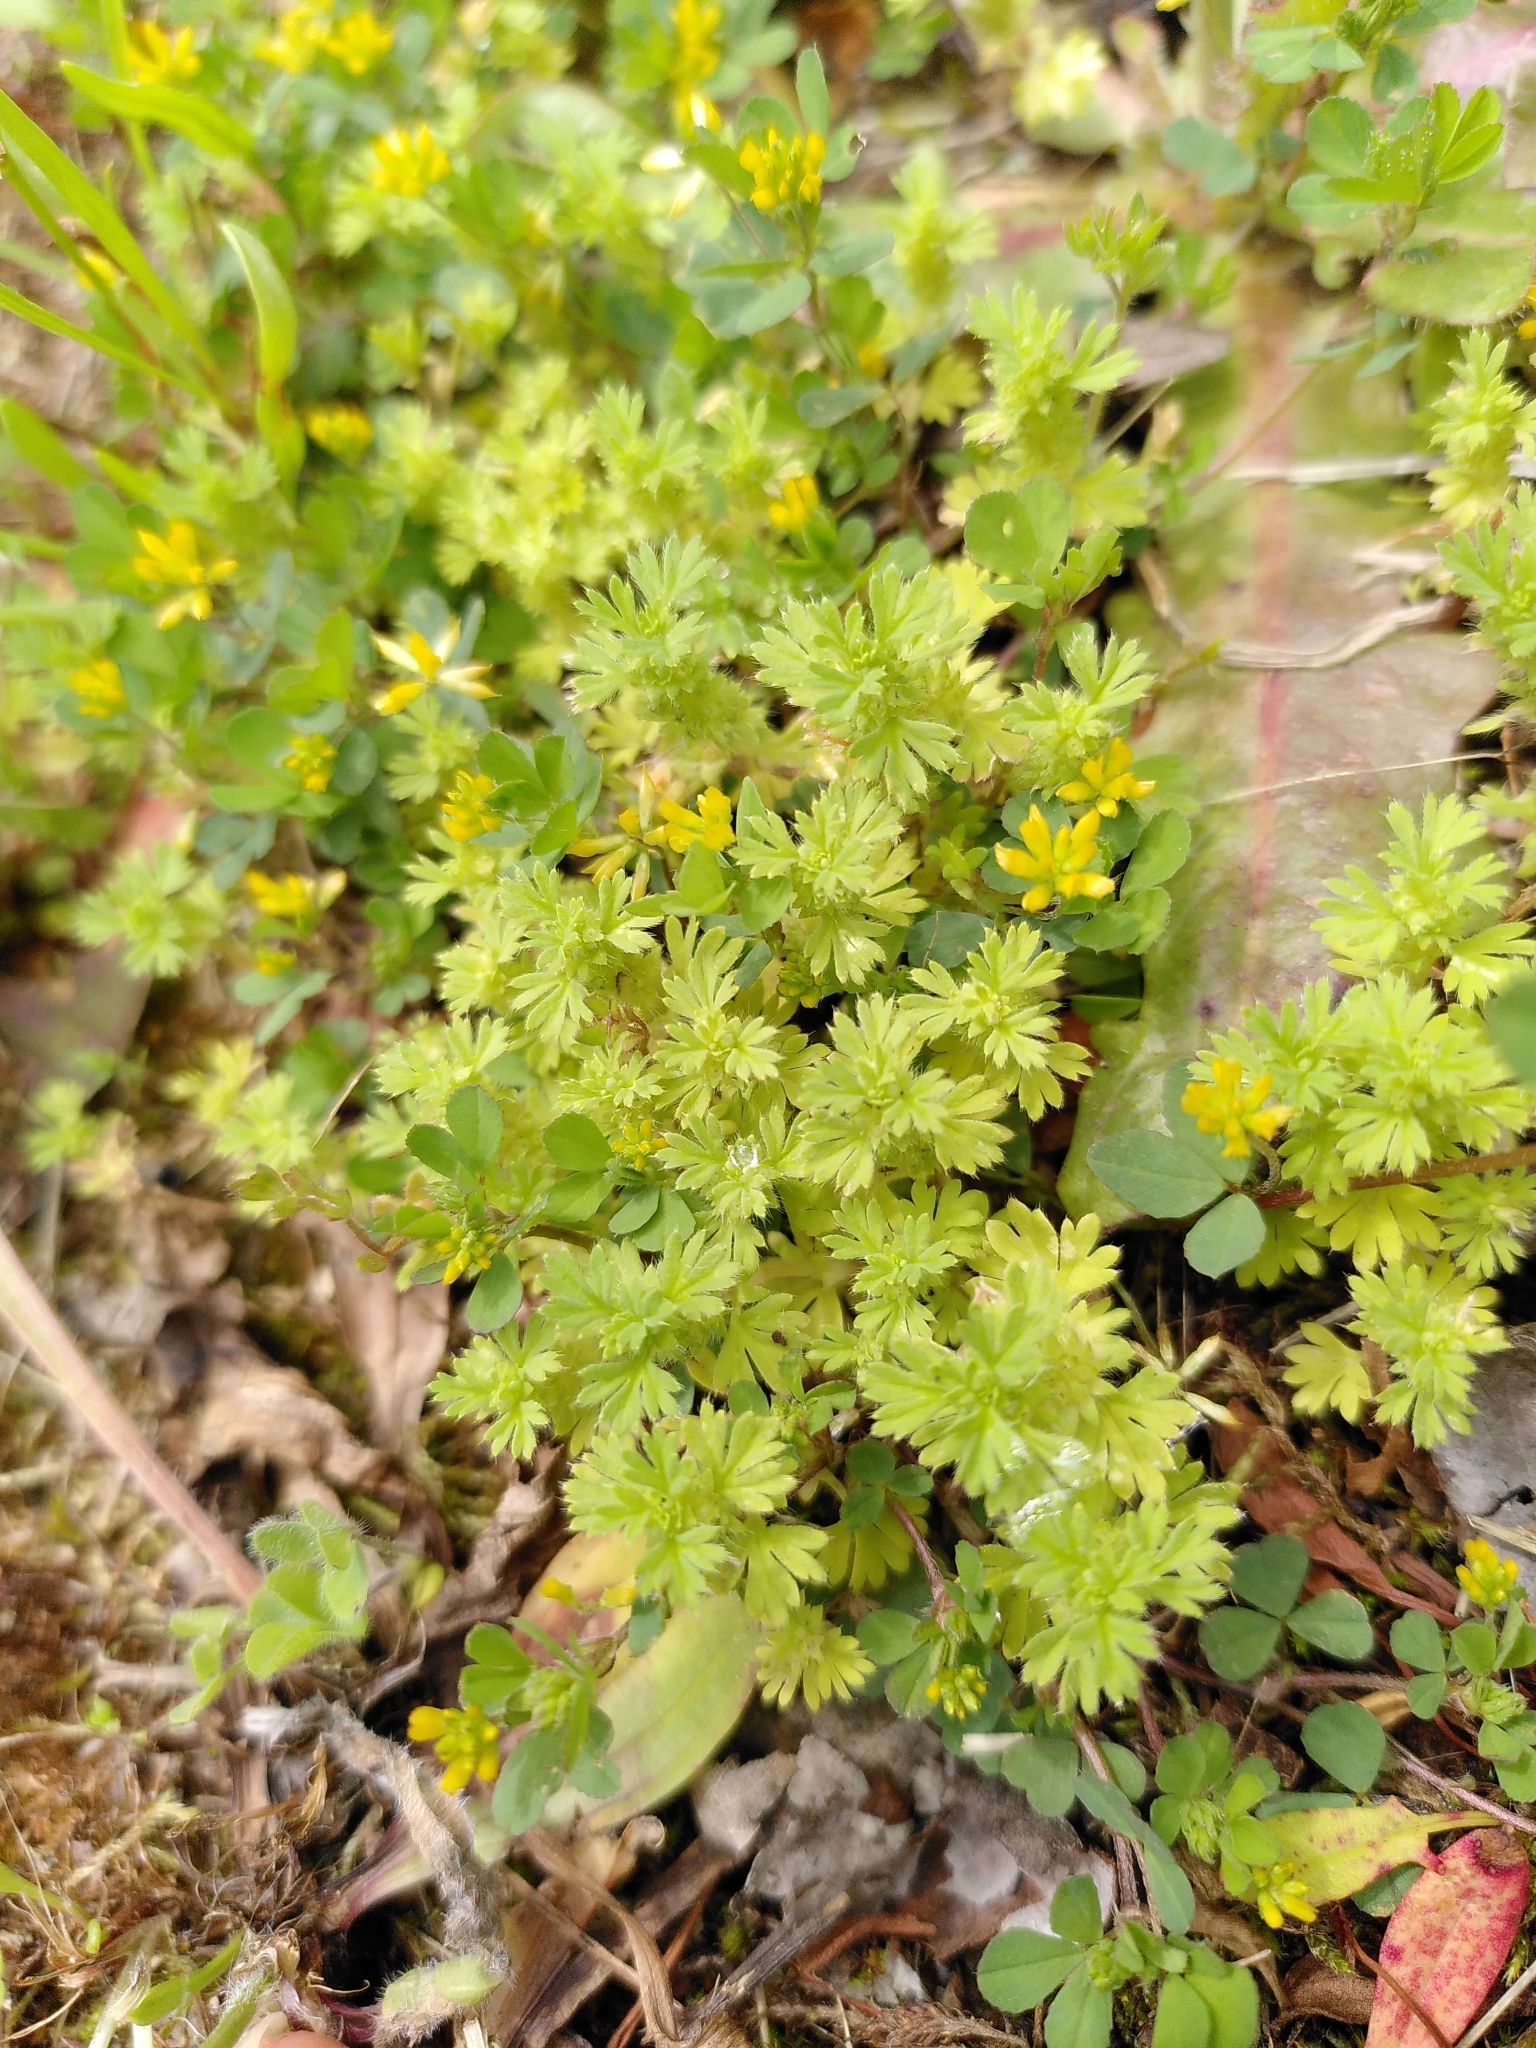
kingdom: Plantae
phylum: Tracheophyta
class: Magnoliopsida
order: Rosales
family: Rosaceae
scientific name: Rosaceae
